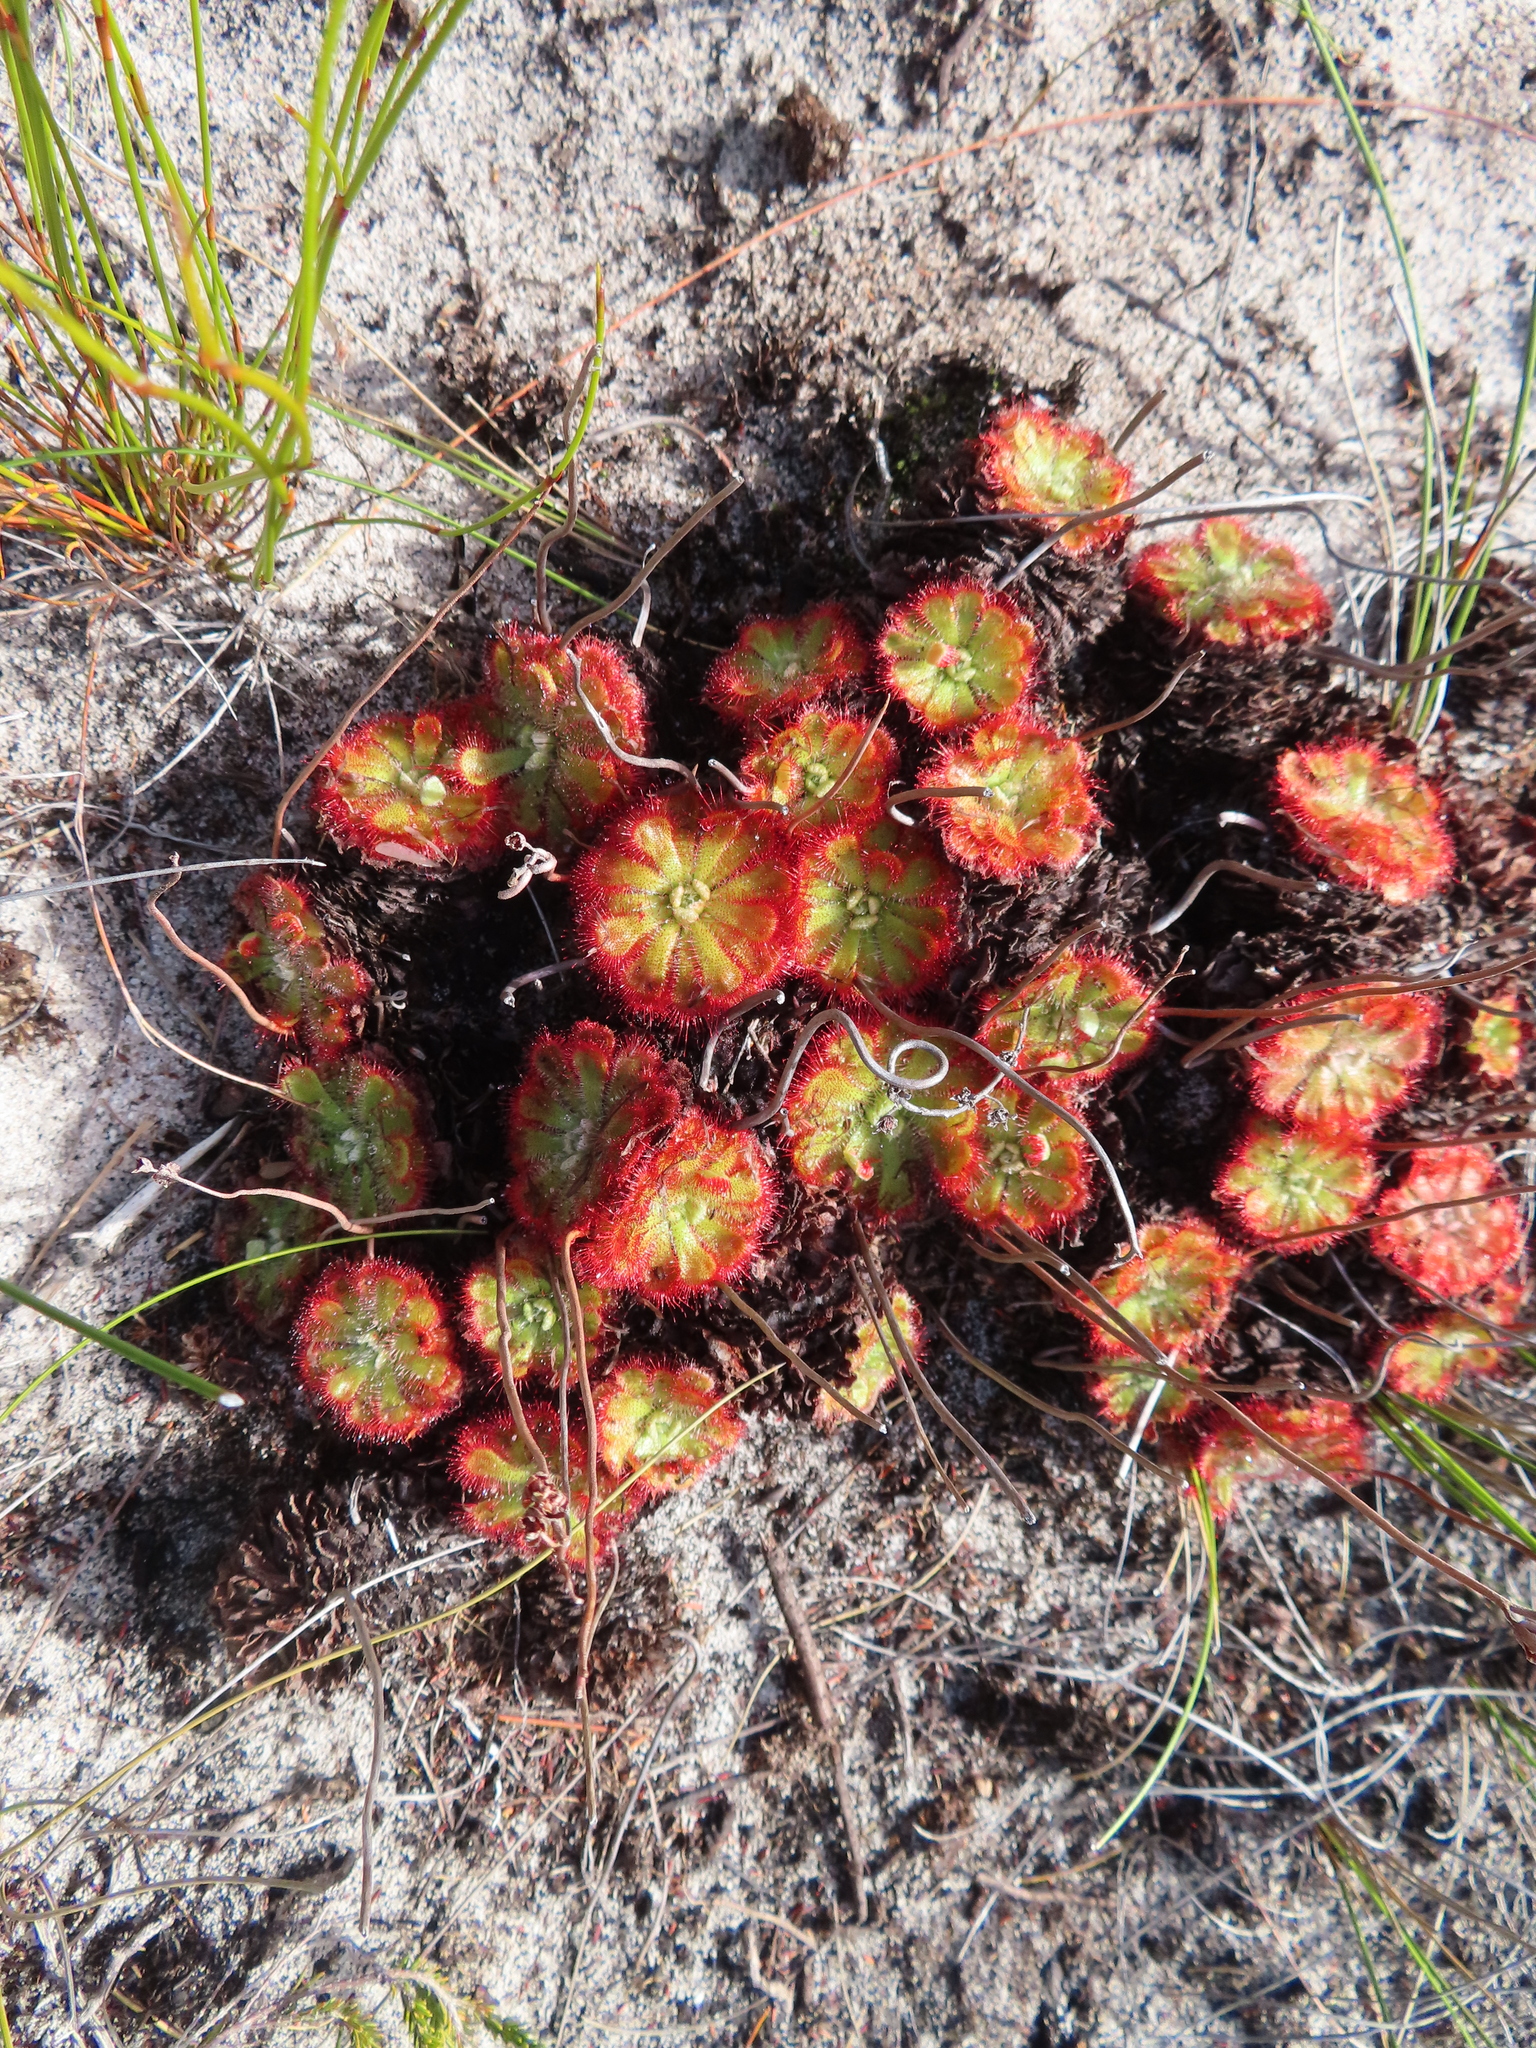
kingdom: Plantae
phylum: Tracheophyta
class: Magnoliopsida
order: Caryophyllales
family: Droseraceae
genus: Drosera
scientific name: Drosera xerophila
